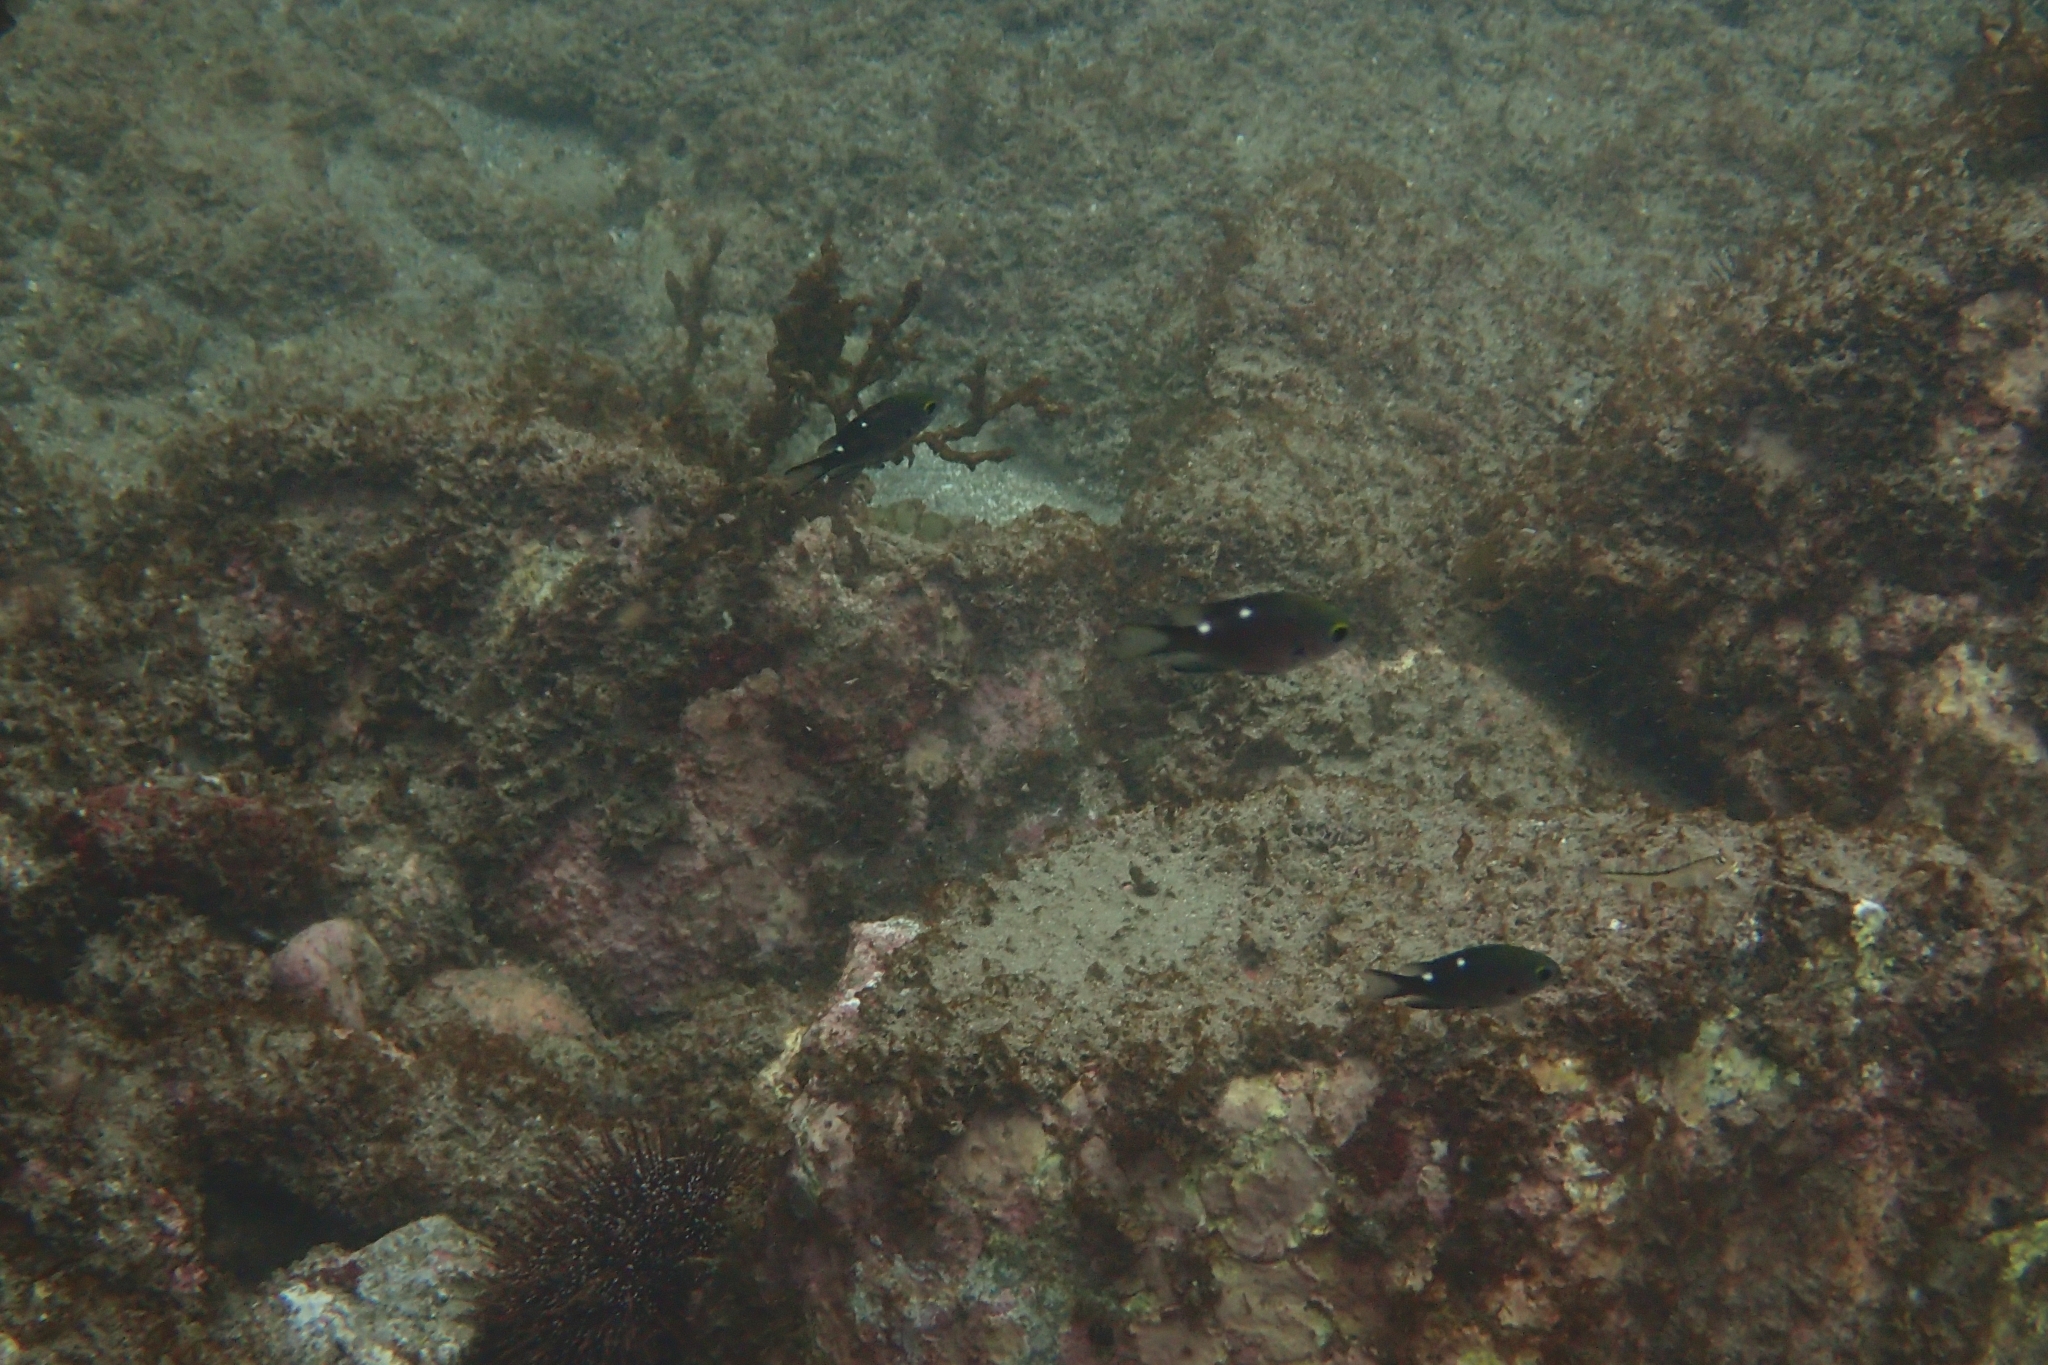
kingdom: Animalia
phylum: Chordata
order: Perciformes
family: Pomacentridae
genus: Chromis
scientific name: Chromis dispilus
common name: Demoiselle
